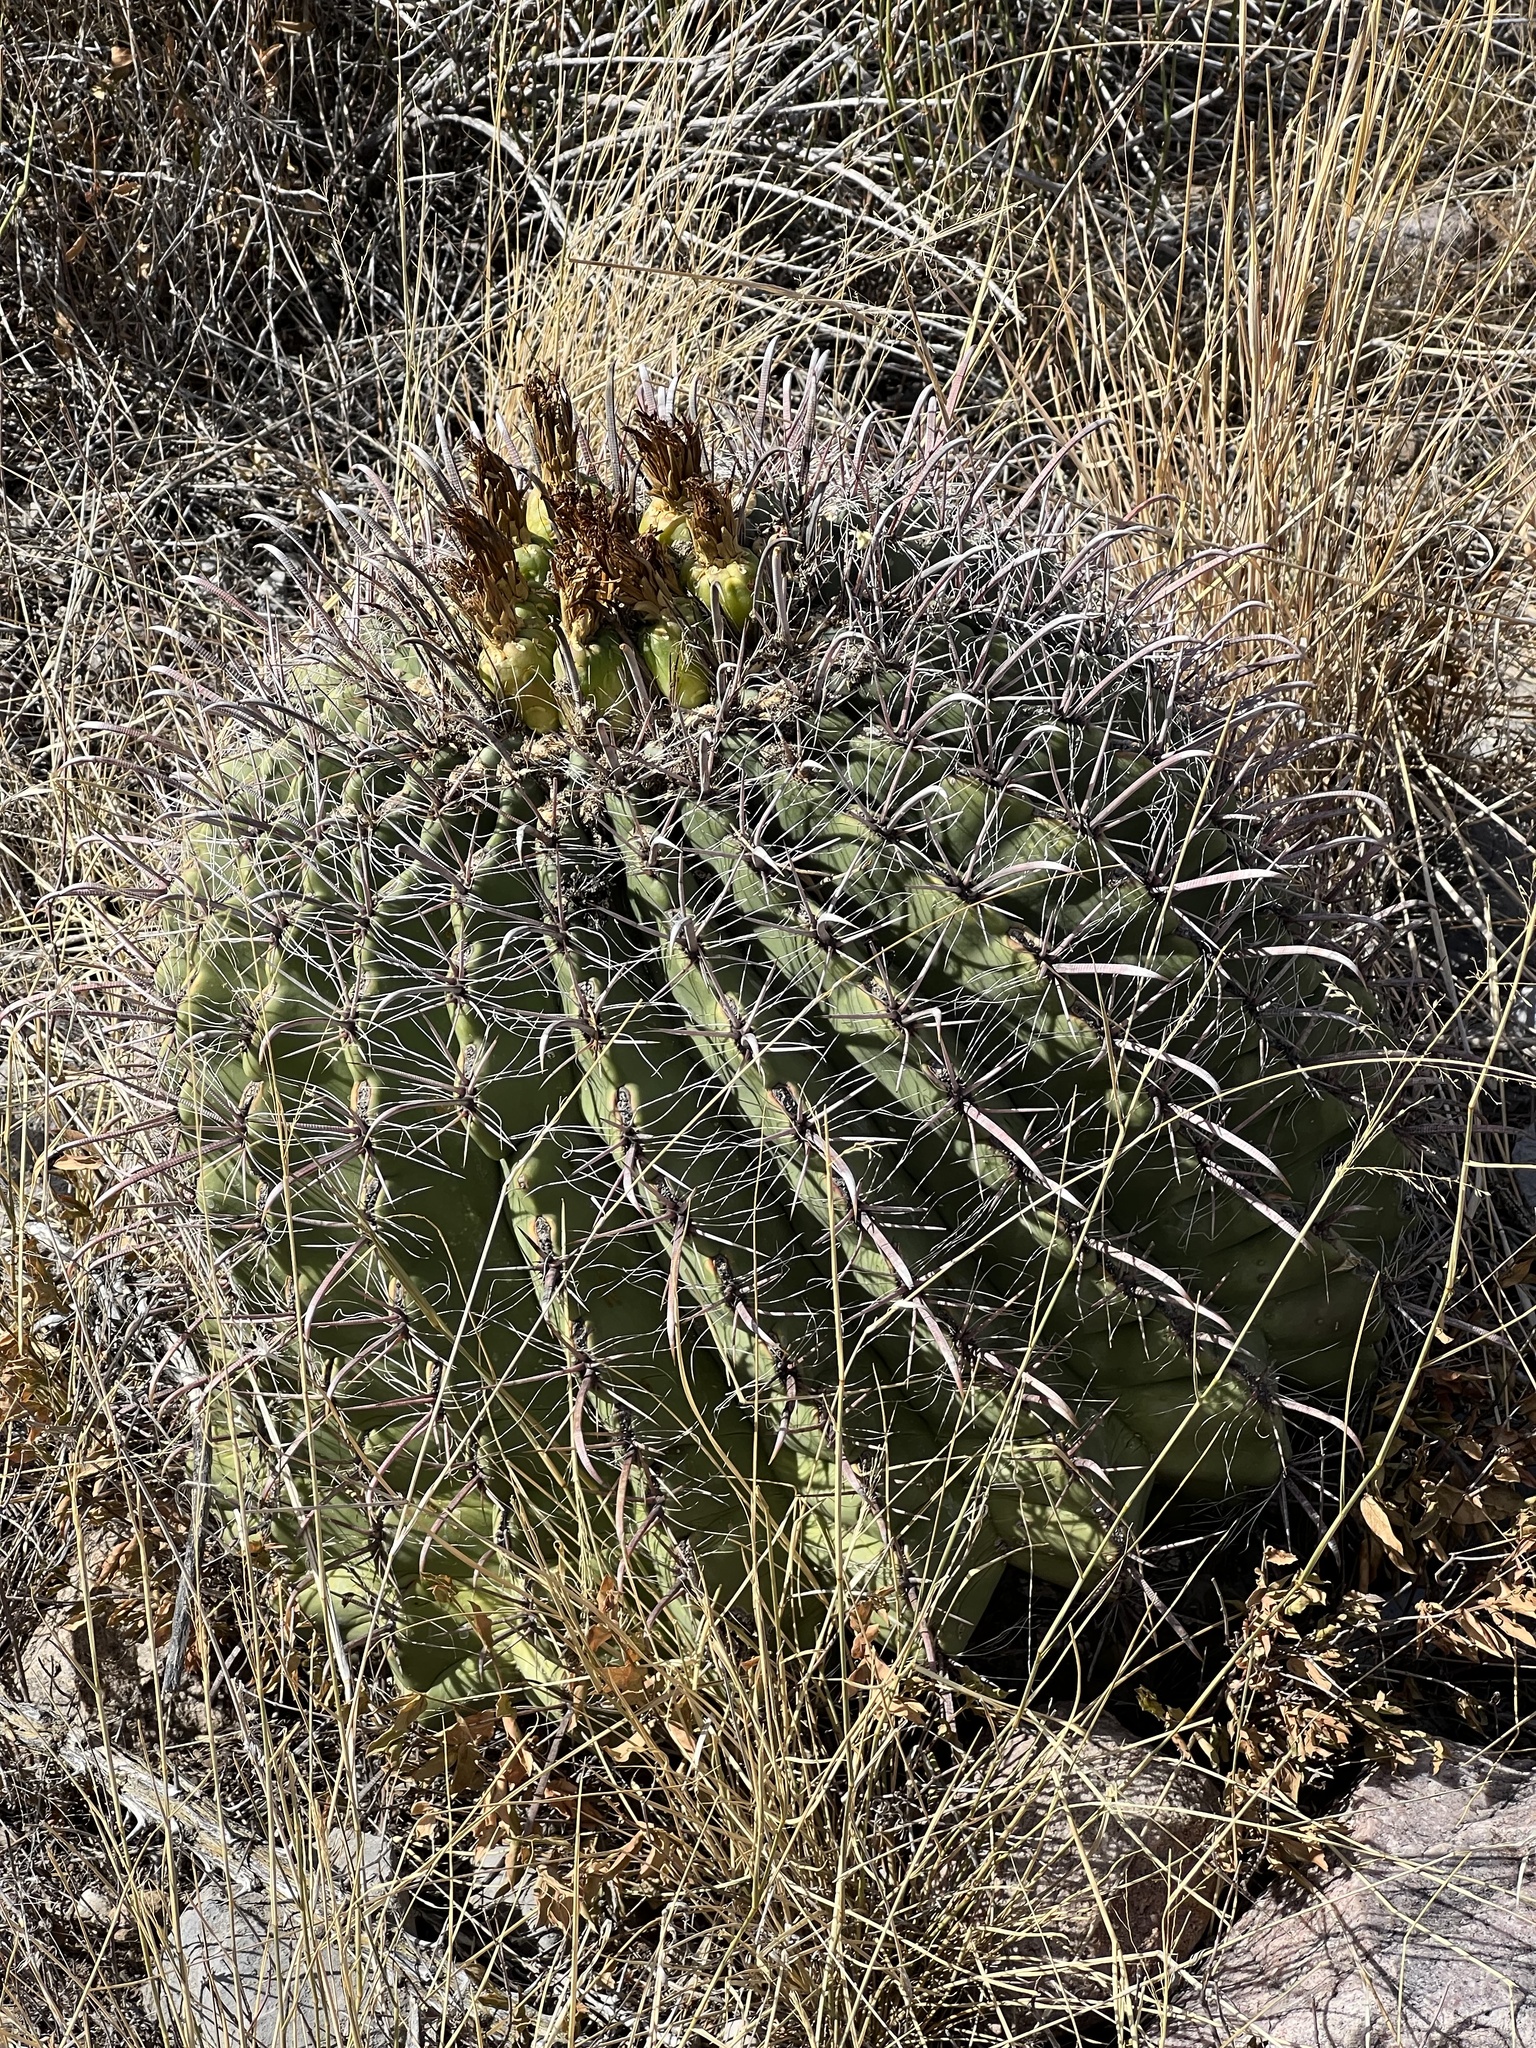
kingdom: Plantae
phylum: Tracheophyta
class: Magnoliopsida
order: Caryophyllales
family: Cactaceae
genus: Ferocactus
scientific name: Ferocactus wislizeni
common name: Candy barrel cactus
